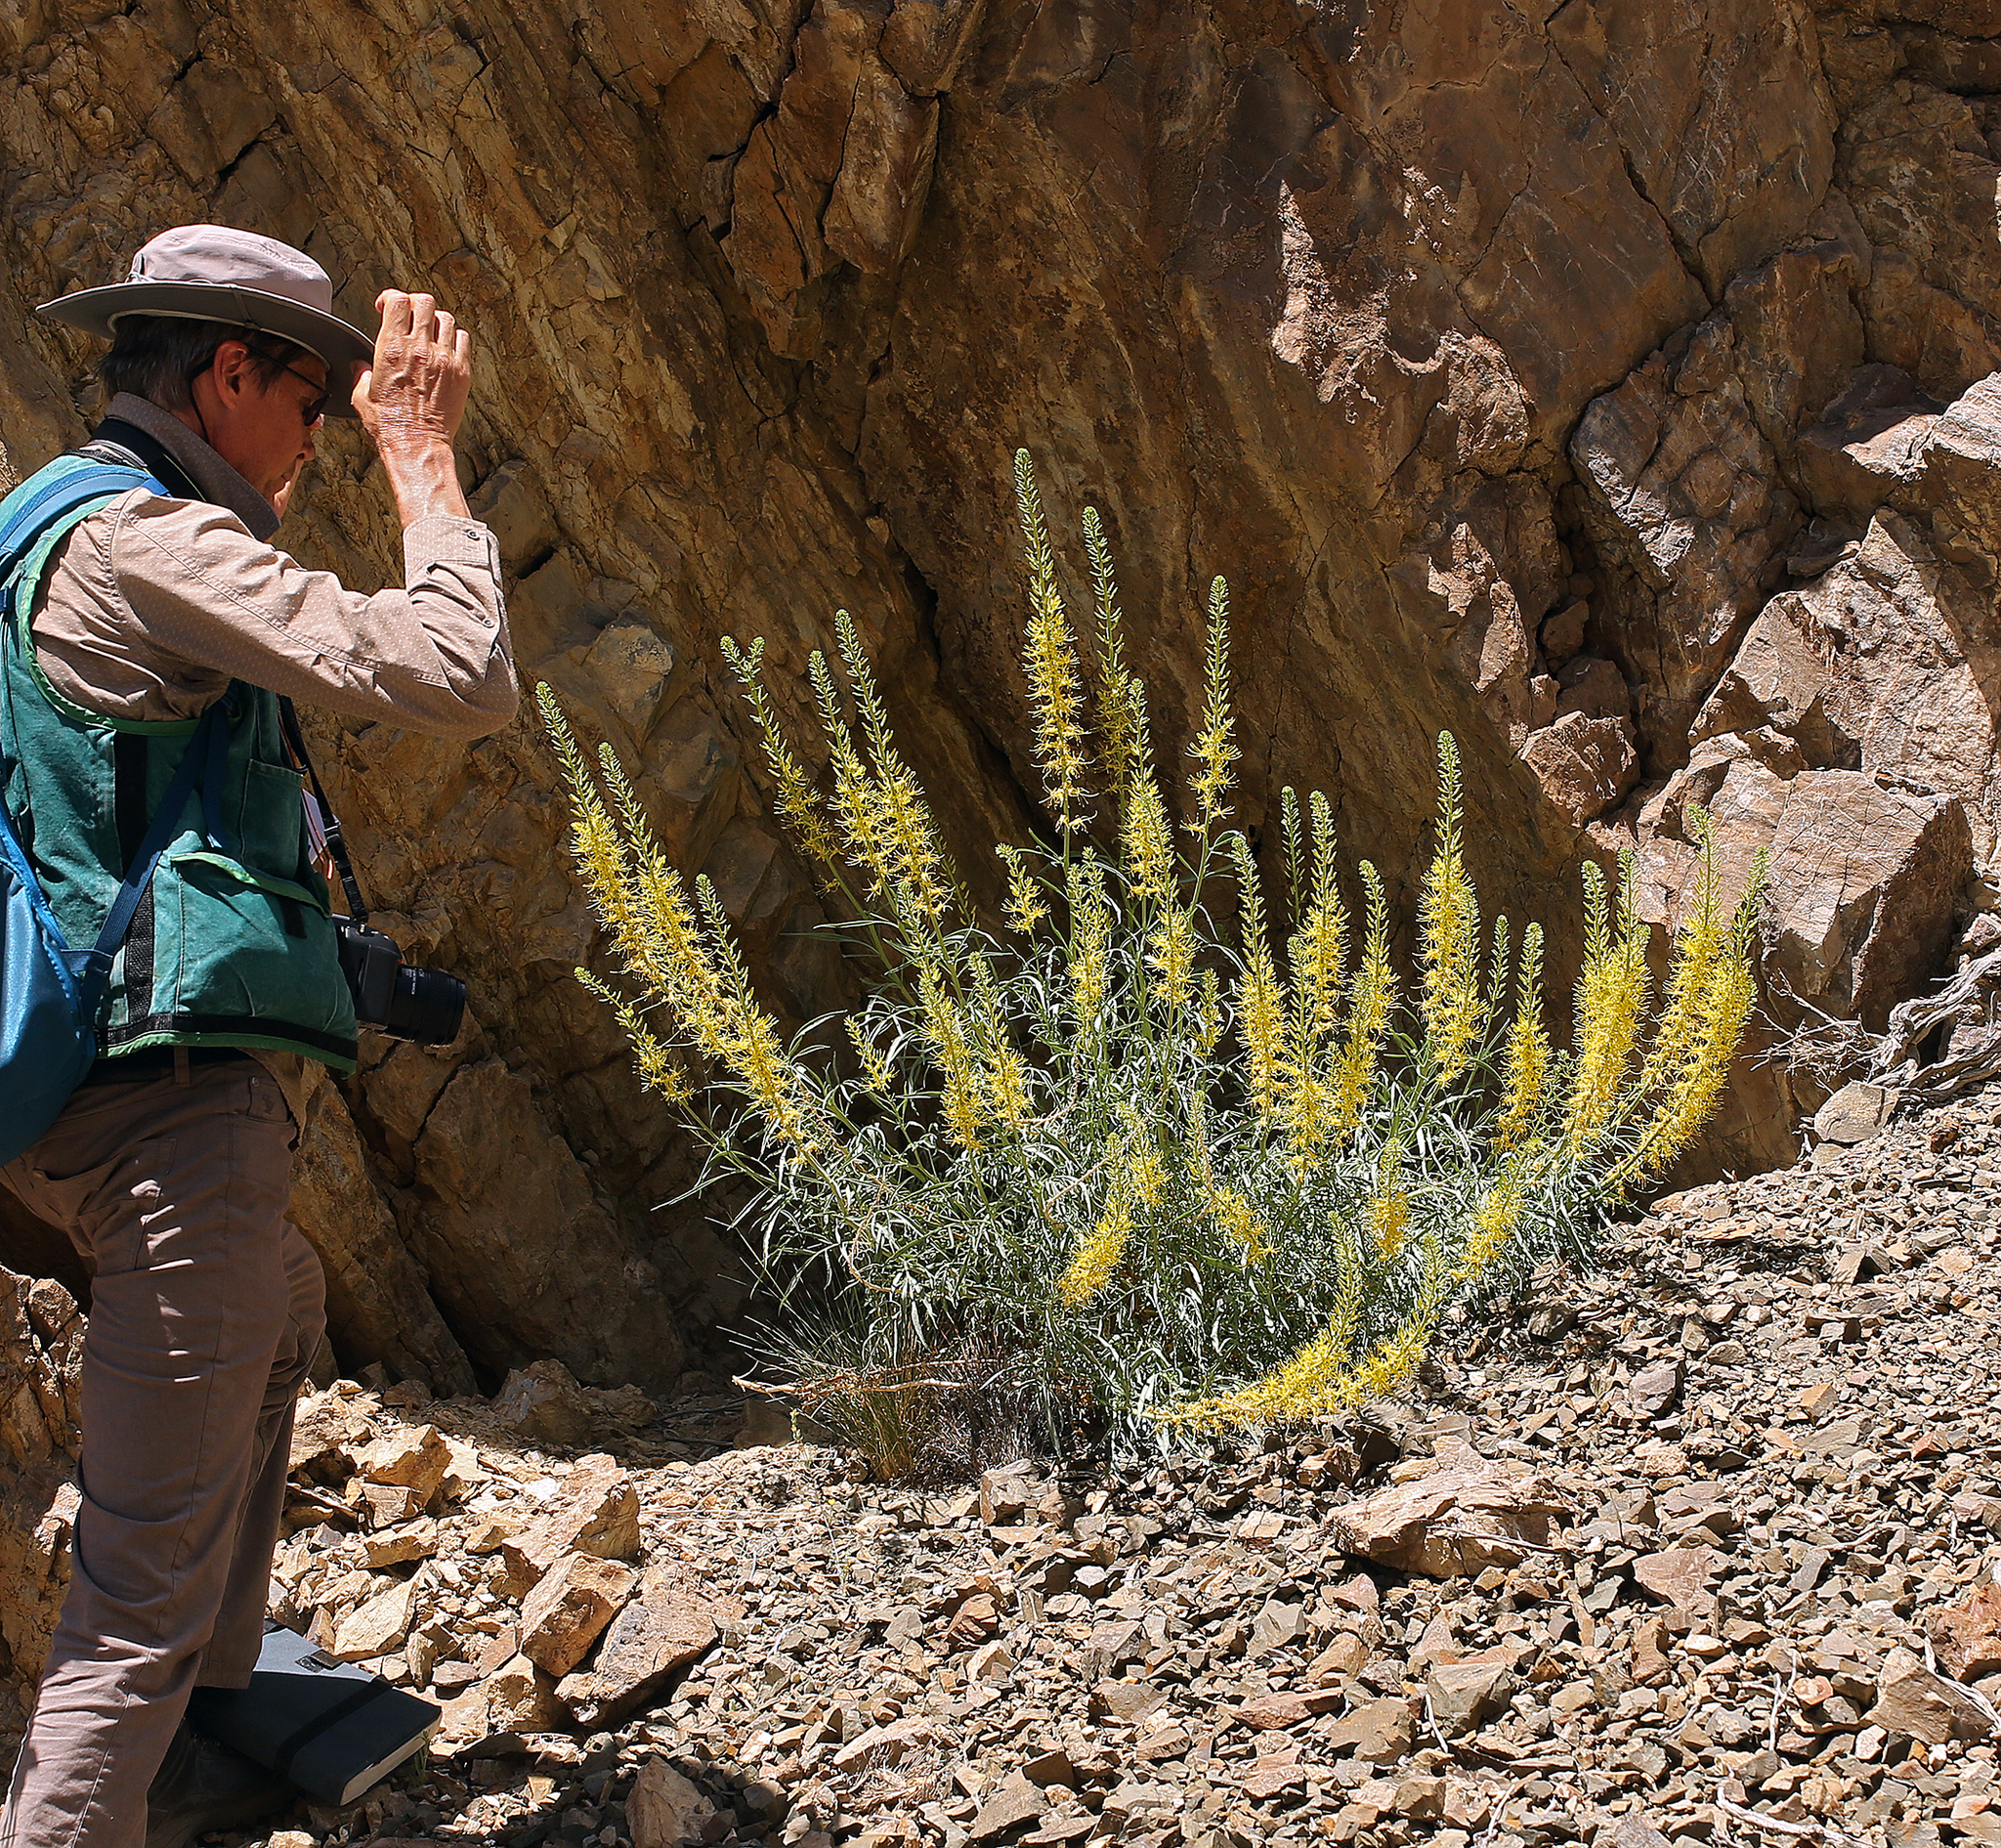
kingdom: Plantae
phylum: Tracheophyta
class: Magnoliopsida
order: Brassicales
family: Brassicaceae
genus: Stanleya
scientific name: Stanleya pinnata
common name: Prince's-plume
